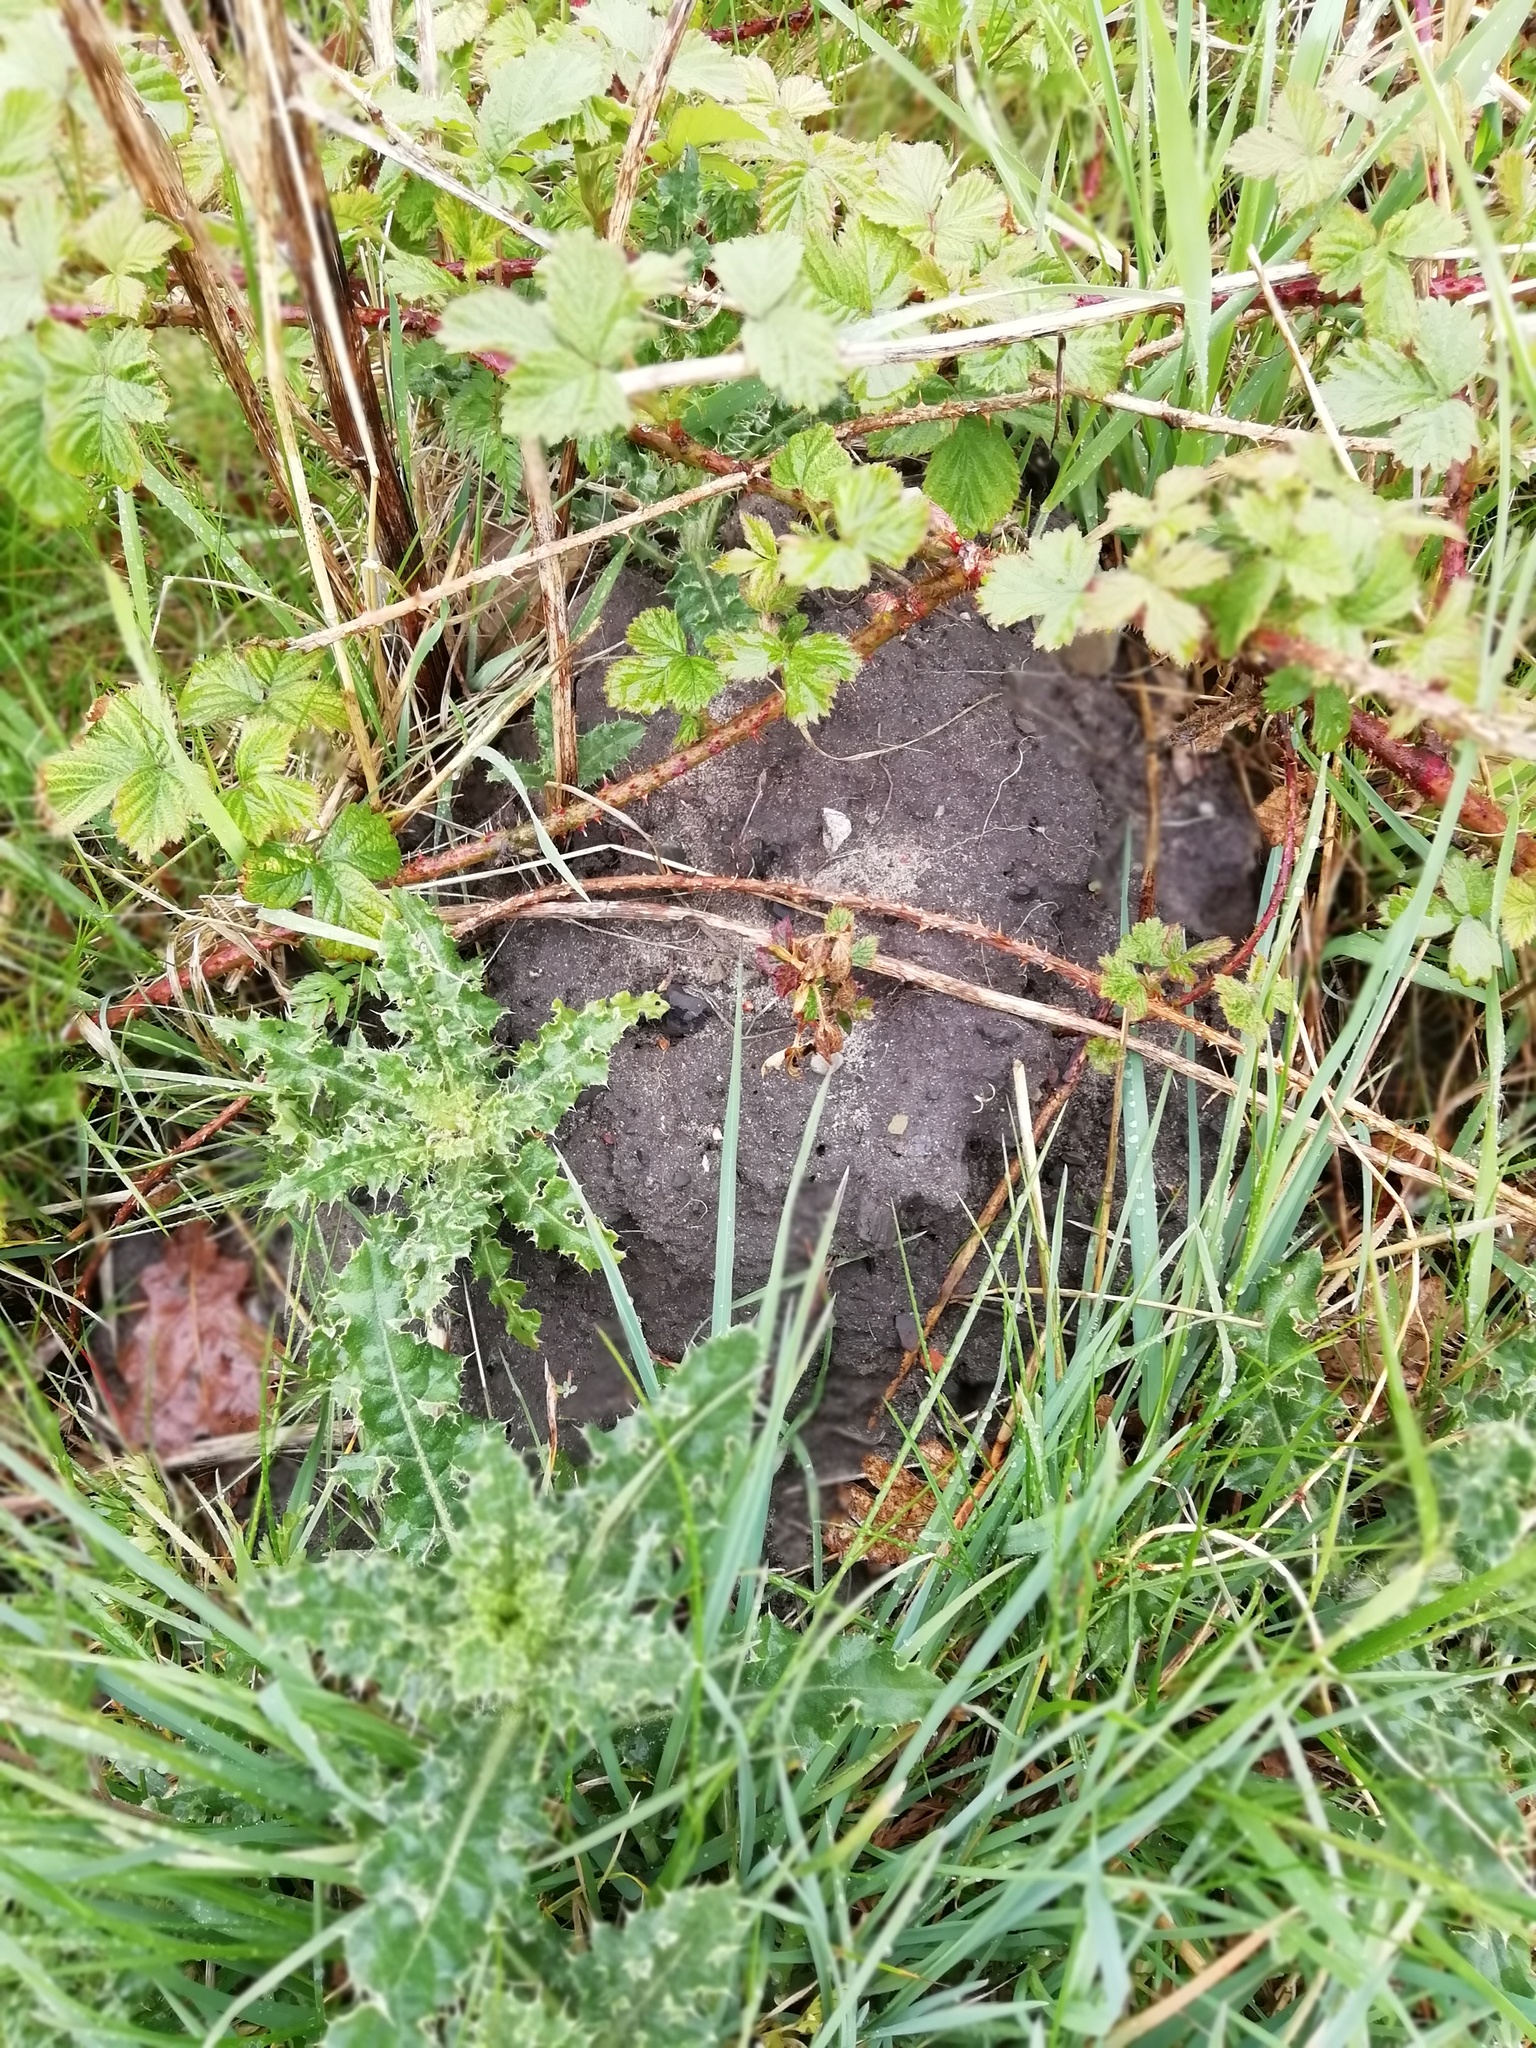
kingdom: Animalia
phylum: Chordata
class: Mammalia
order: Soricomorpha
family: Talpidae
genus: Talpa
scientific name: Talpa europaea
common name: European mole
